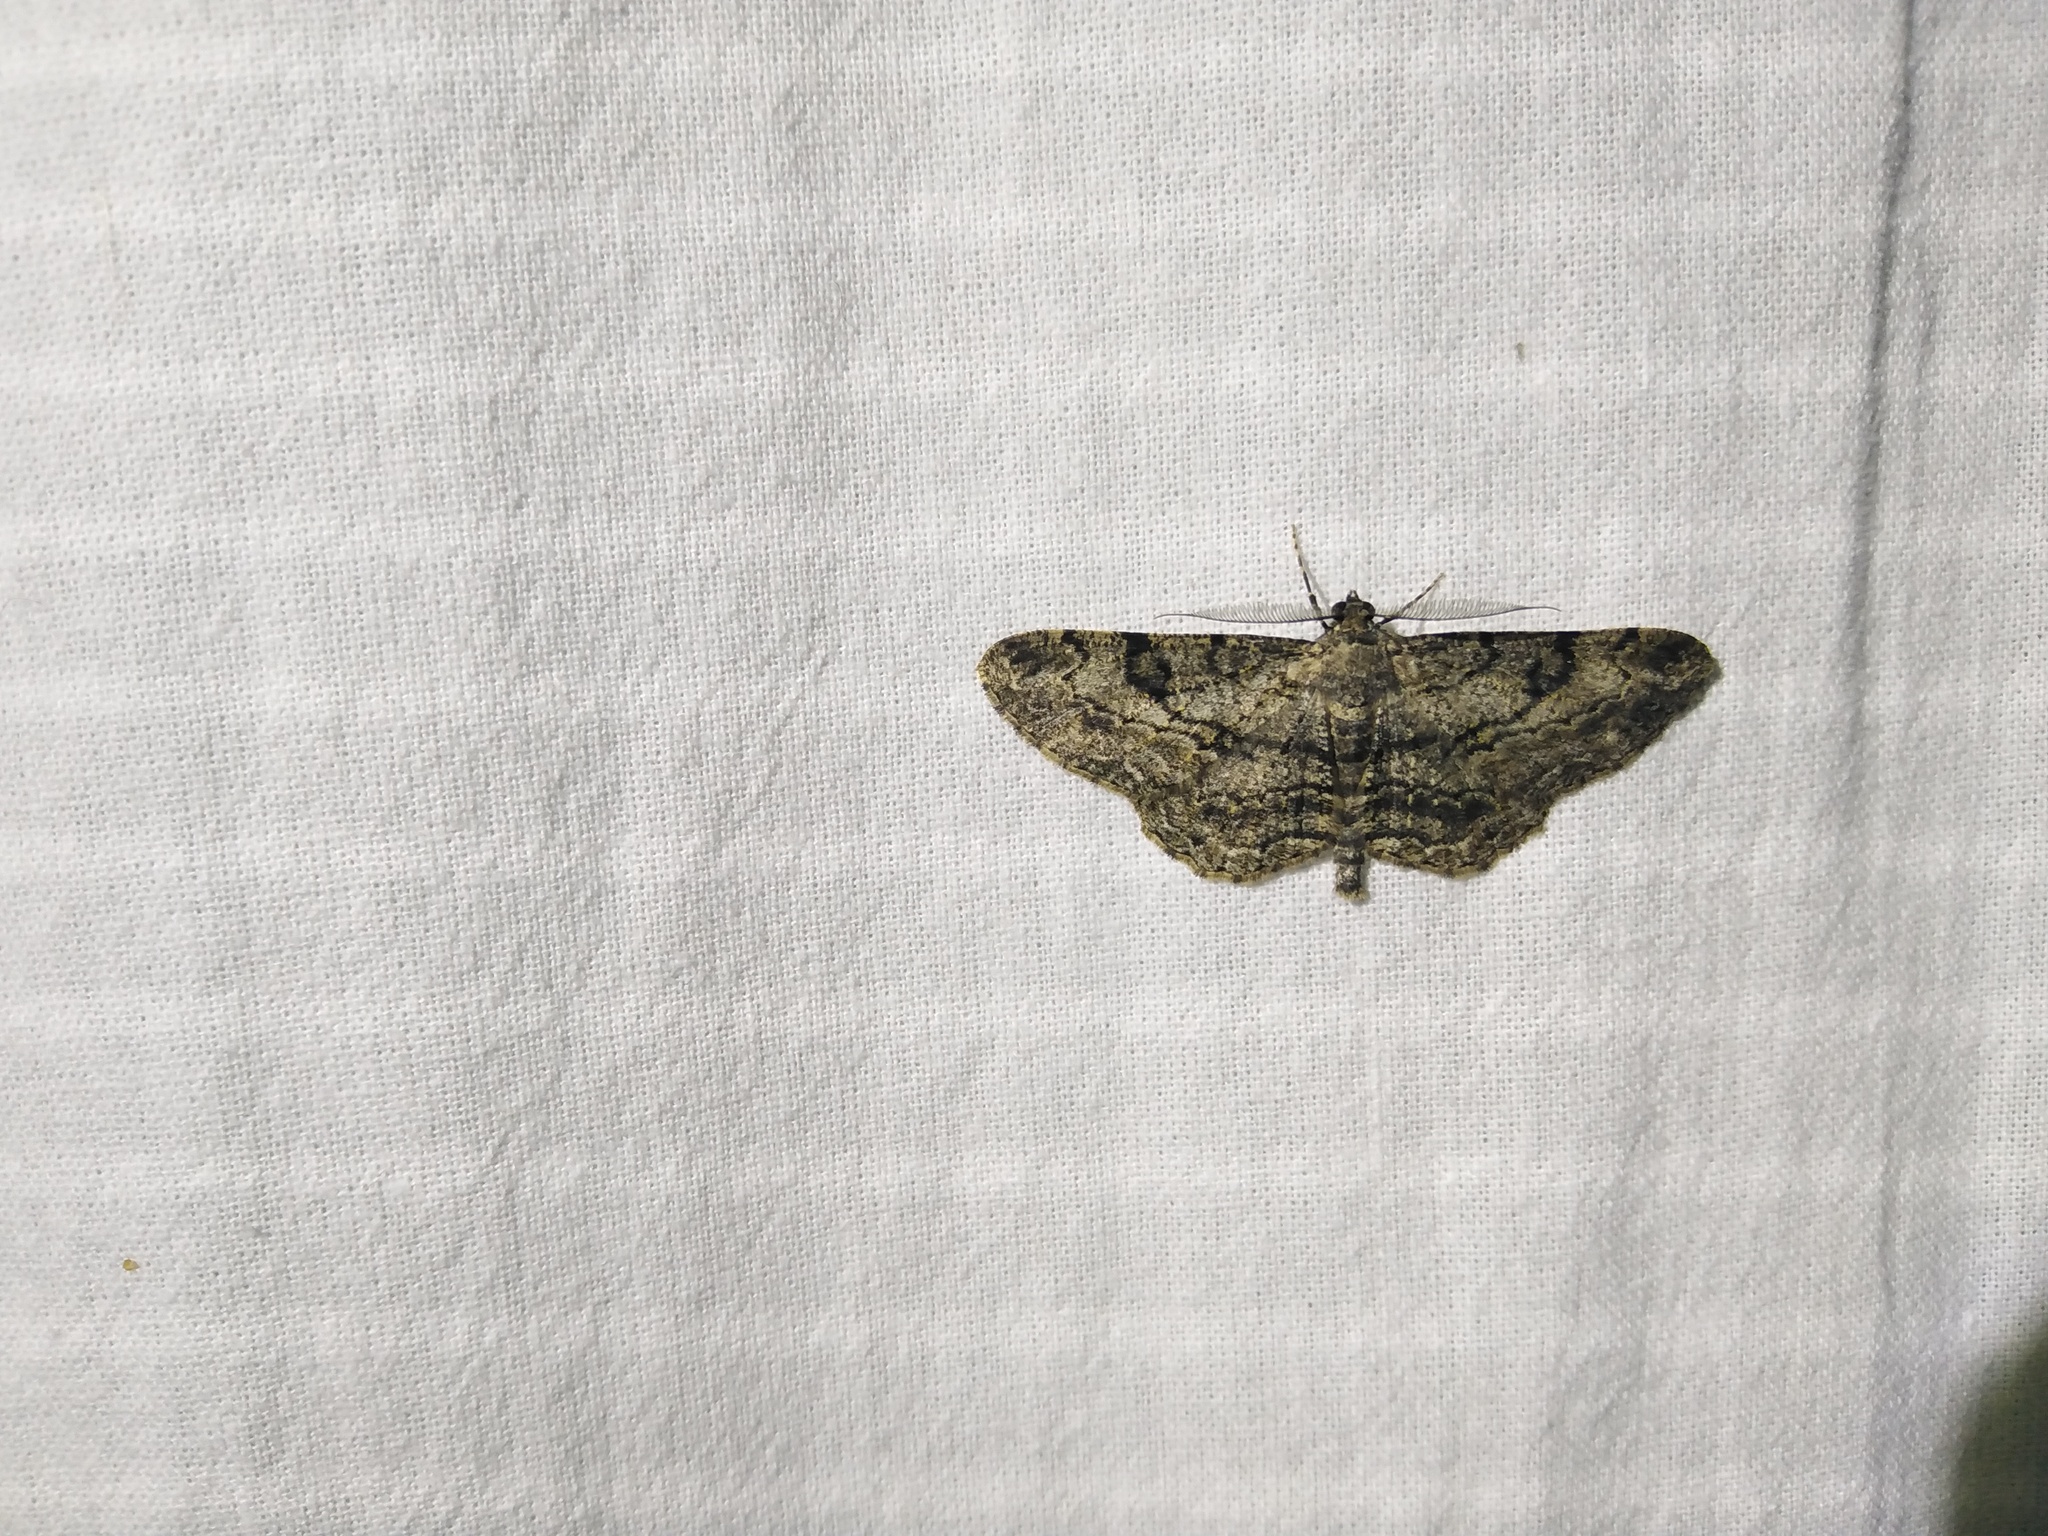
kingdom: Animalia
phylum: Arthropoda
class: Insecta
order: Lepidoptera
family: Geometridae
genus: Peribatodes
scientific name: Peribatodes rhomboidaria
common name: Willow beauty
